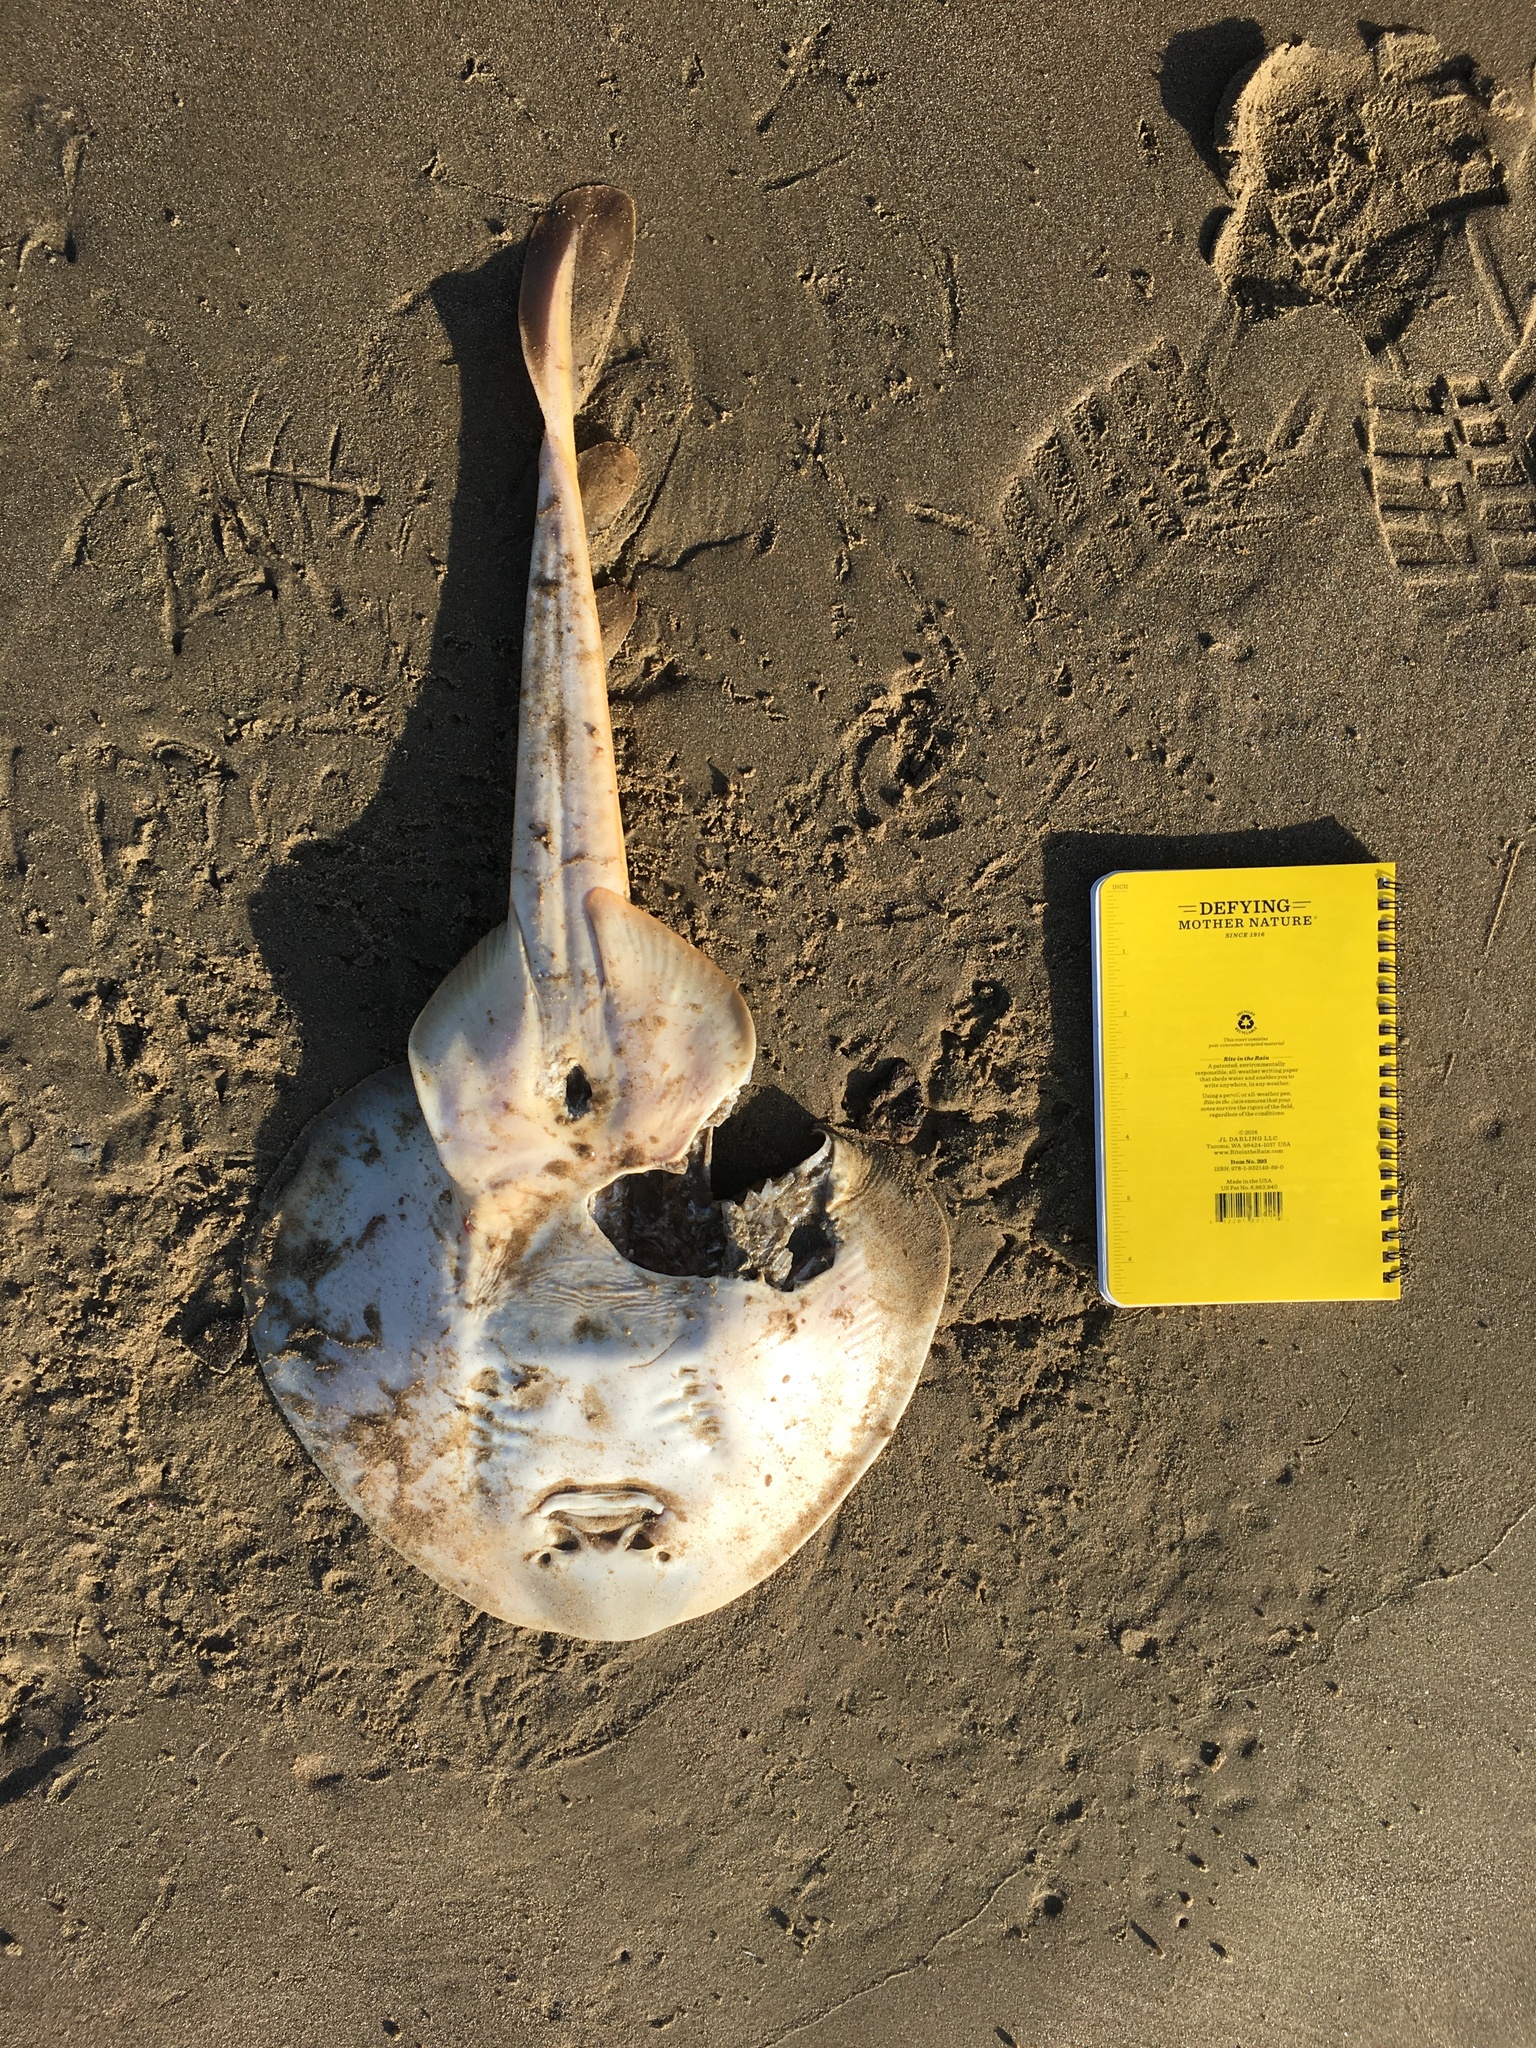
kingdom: Animalia
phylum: Chordata
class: Elasmobranchii
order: Rhinopristiformes
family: Rhinobatidae
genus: Platyrhinoidis
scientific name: Platyrhinoidis triseriata
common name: Thornback
